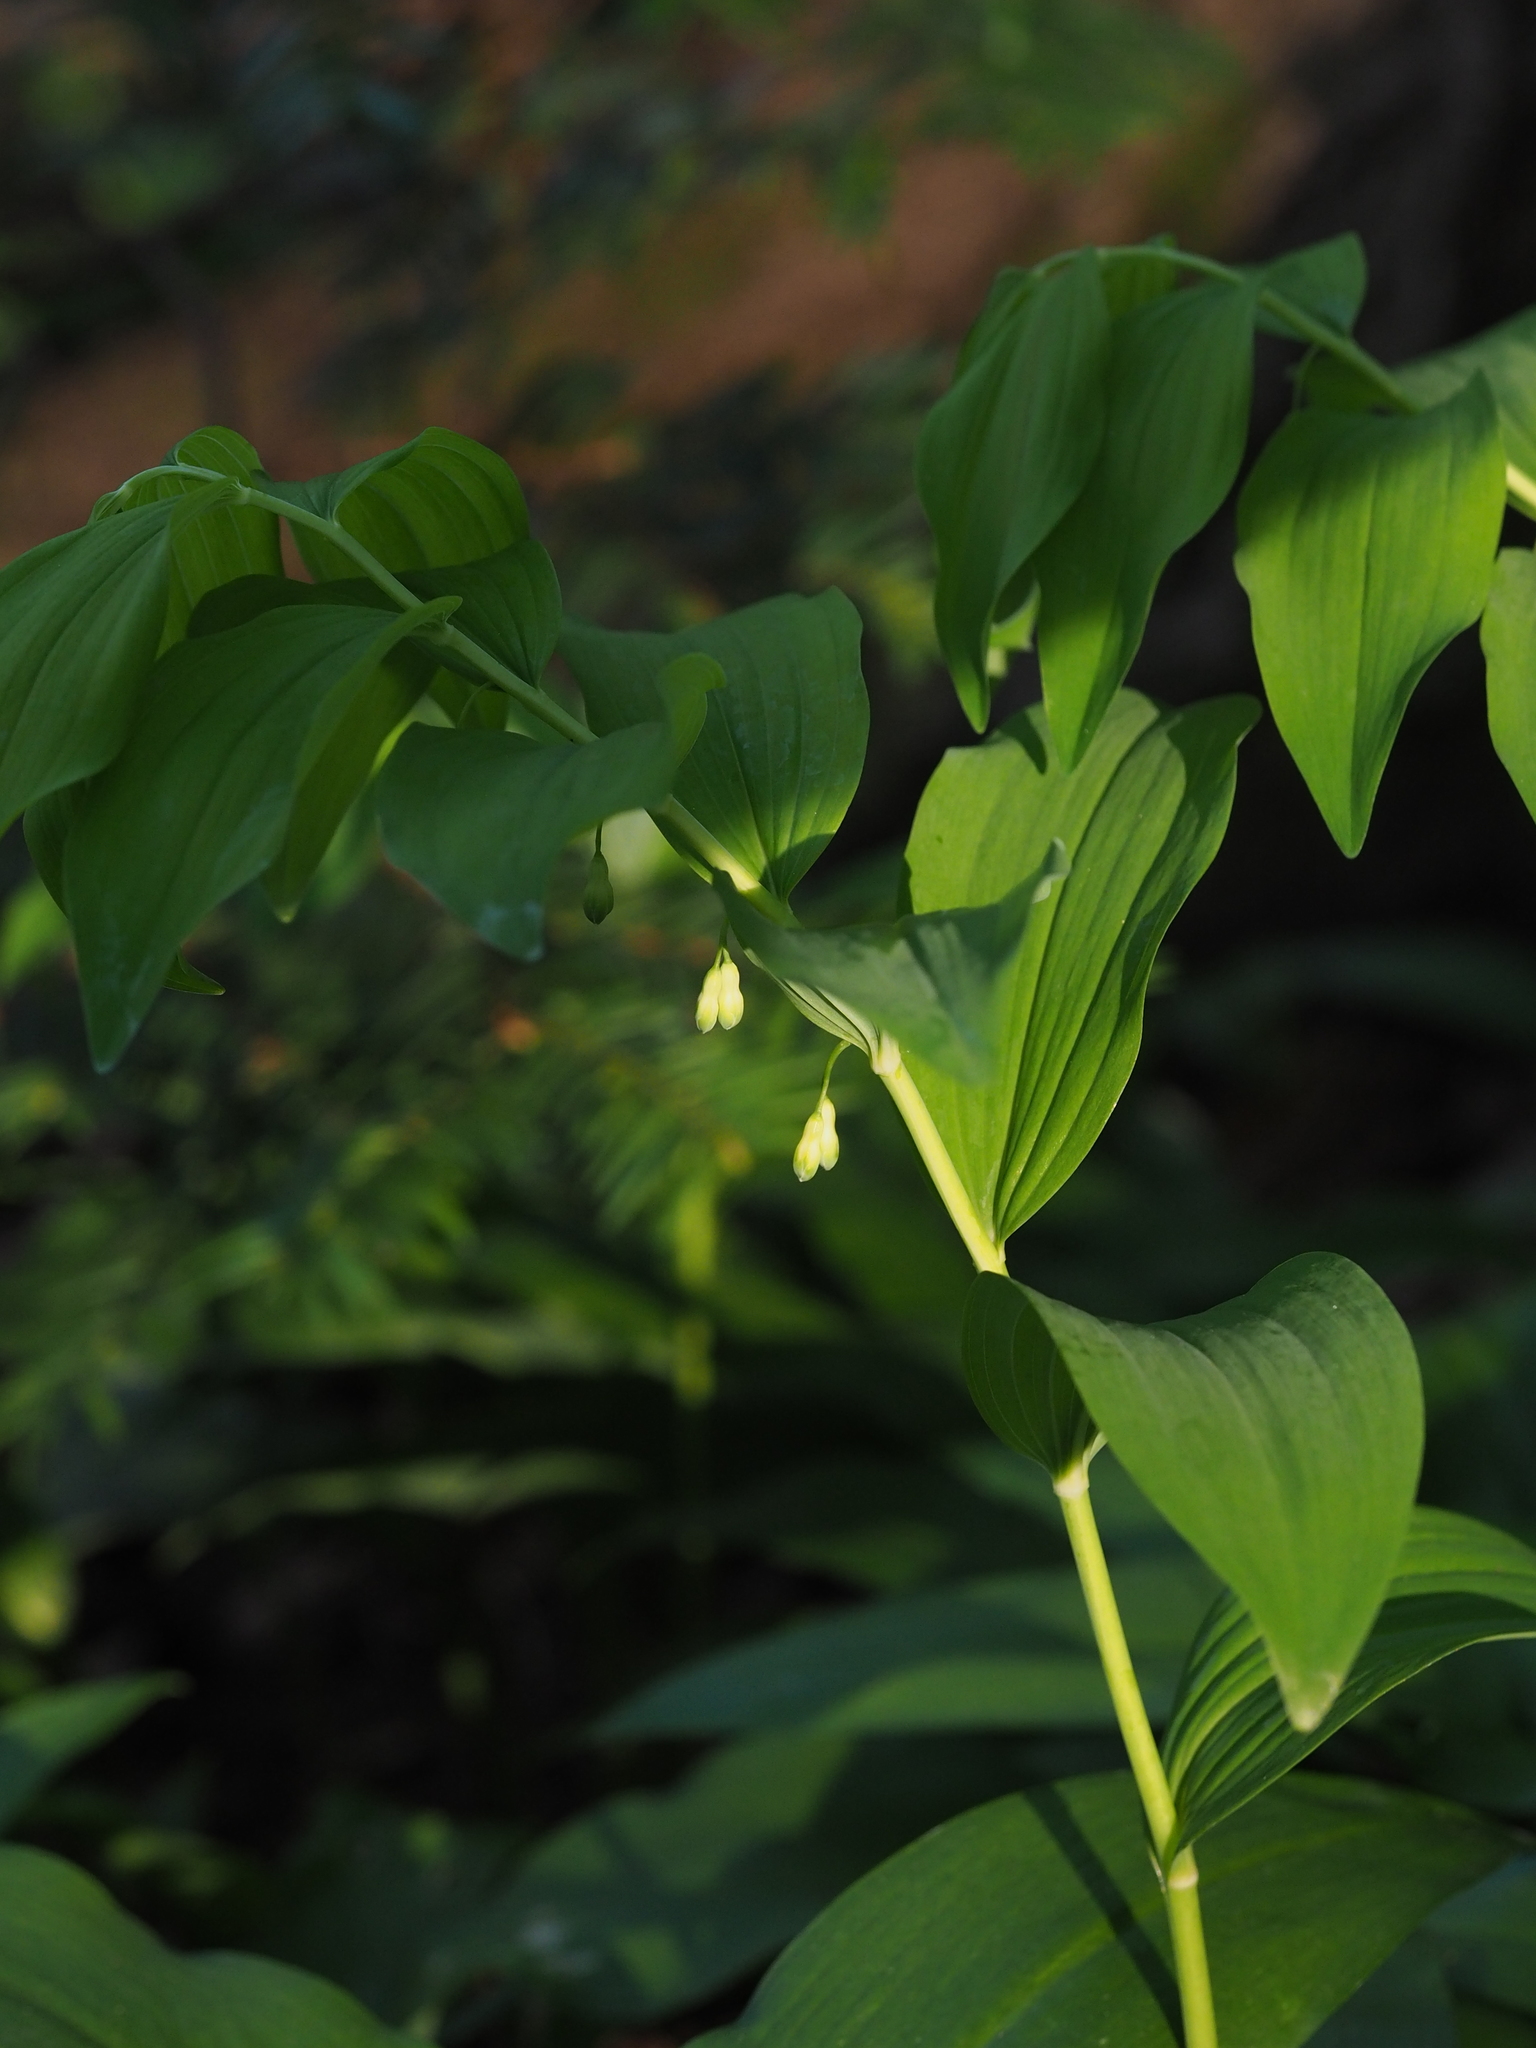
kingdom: Plantae
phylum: Tracheophyta
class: Liliopsida
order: Asparagales
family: Asparagaceae
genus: Polygonatum
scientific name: Polygonatum multiflorum
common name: Solomon's-seal
